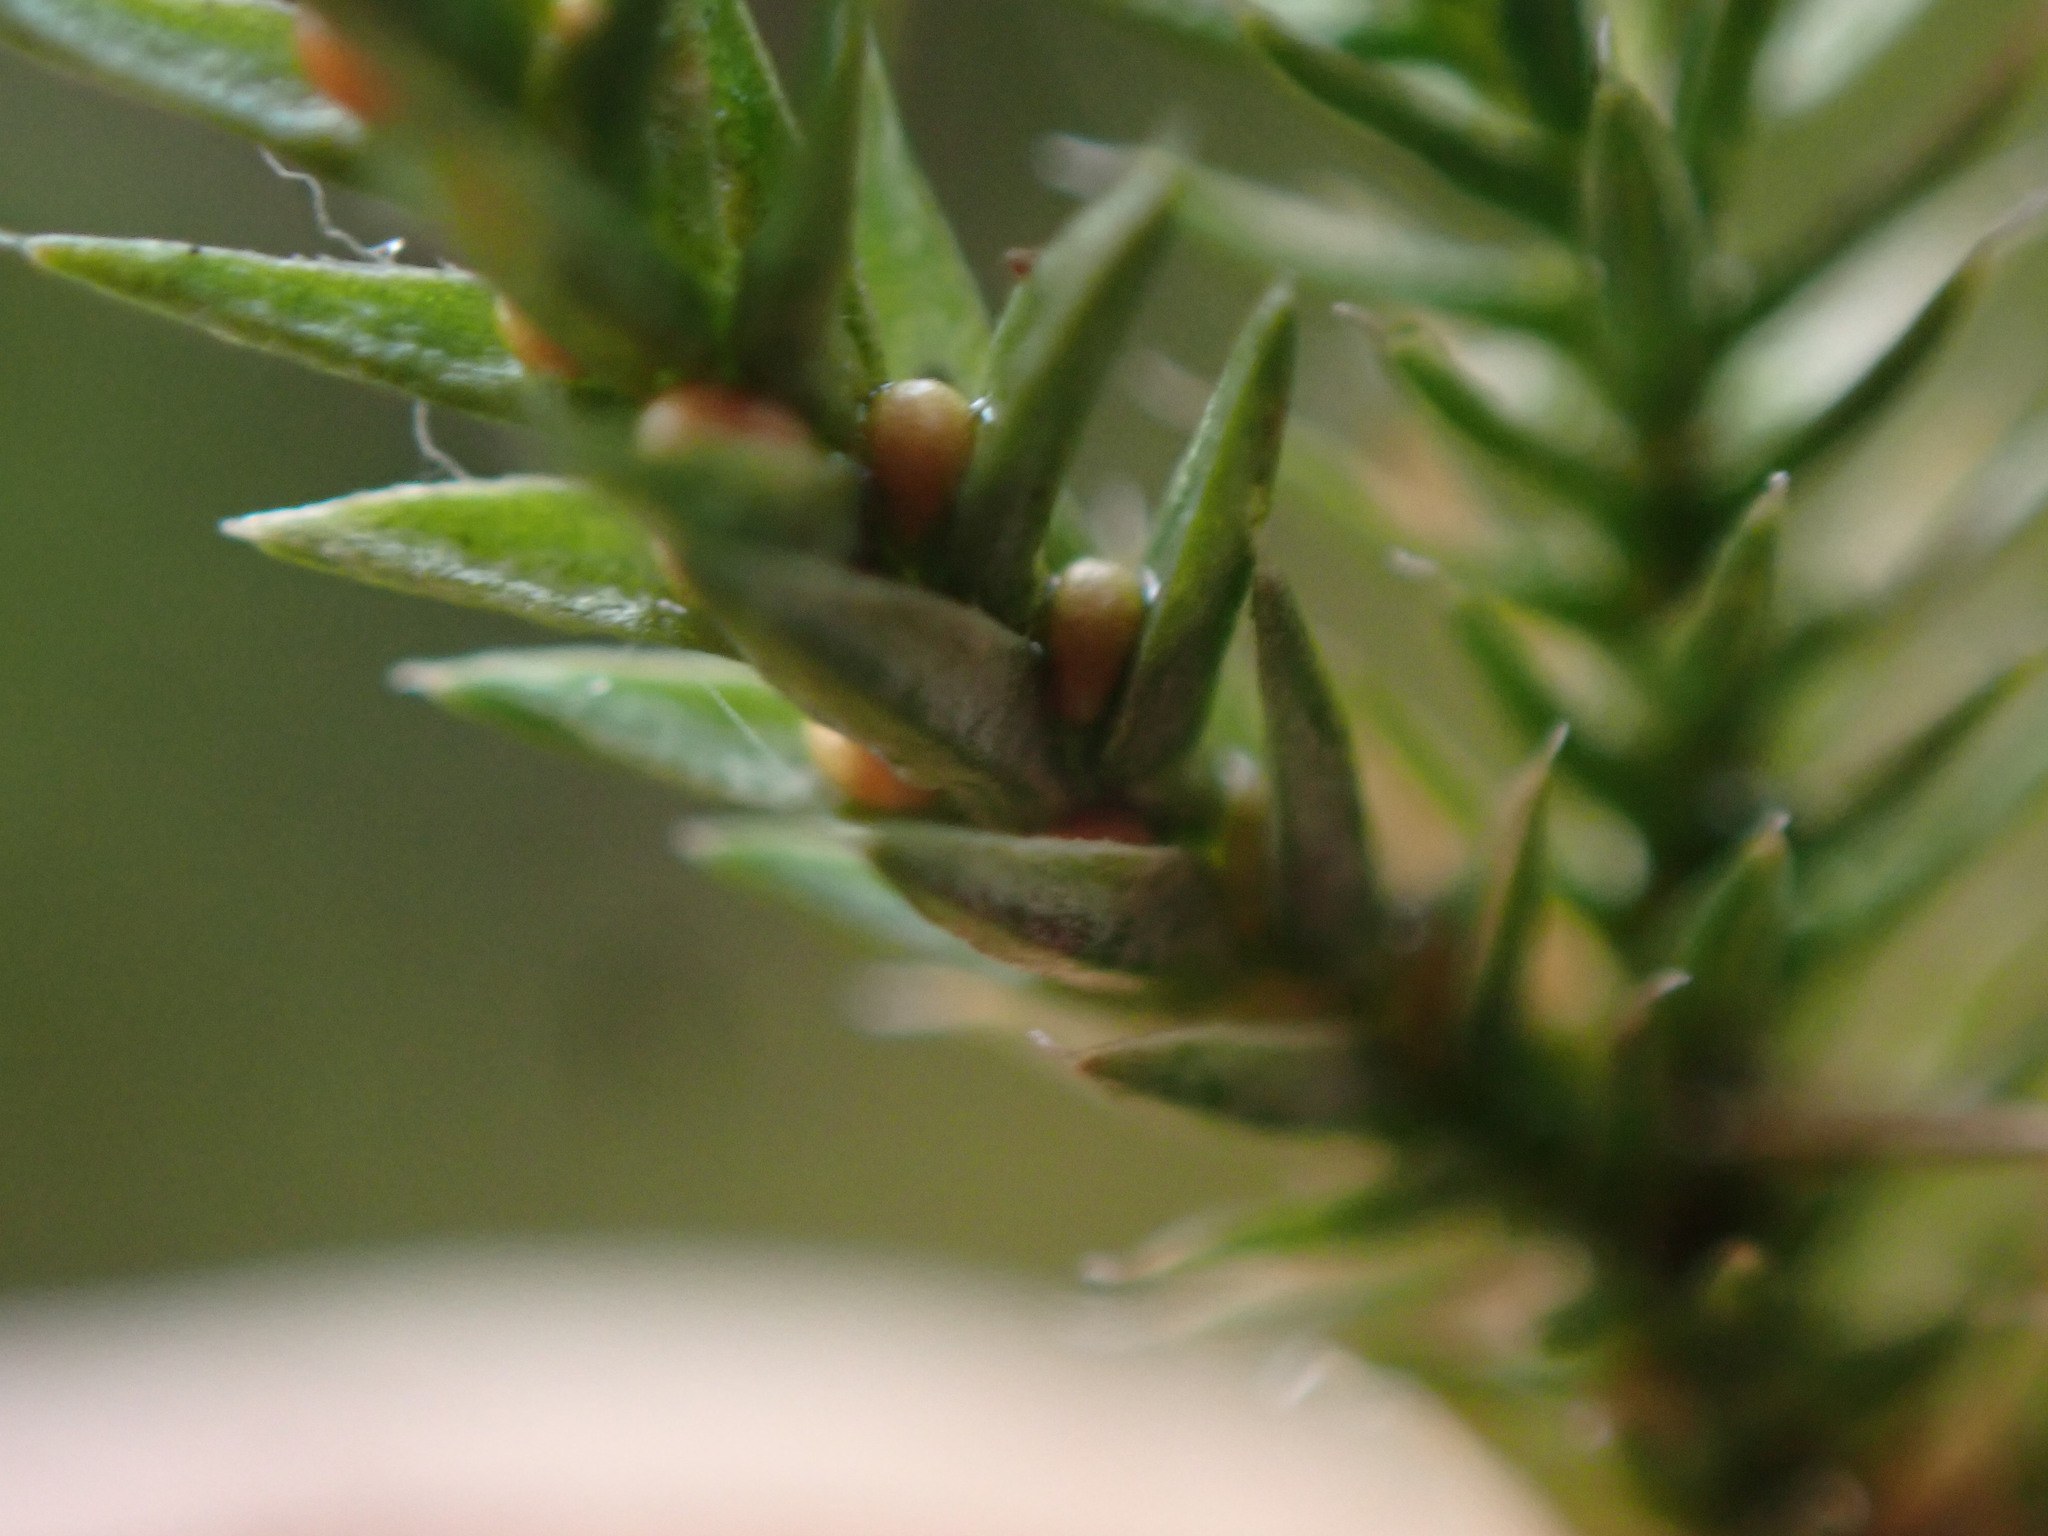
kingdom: Plantae
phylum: Tracheophyta
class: Lycopodiopsida
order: Selaginellales
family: Selaginellaceae
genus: Selaginella
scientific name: Selaginella wallacei
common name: Wallace's selaginella
